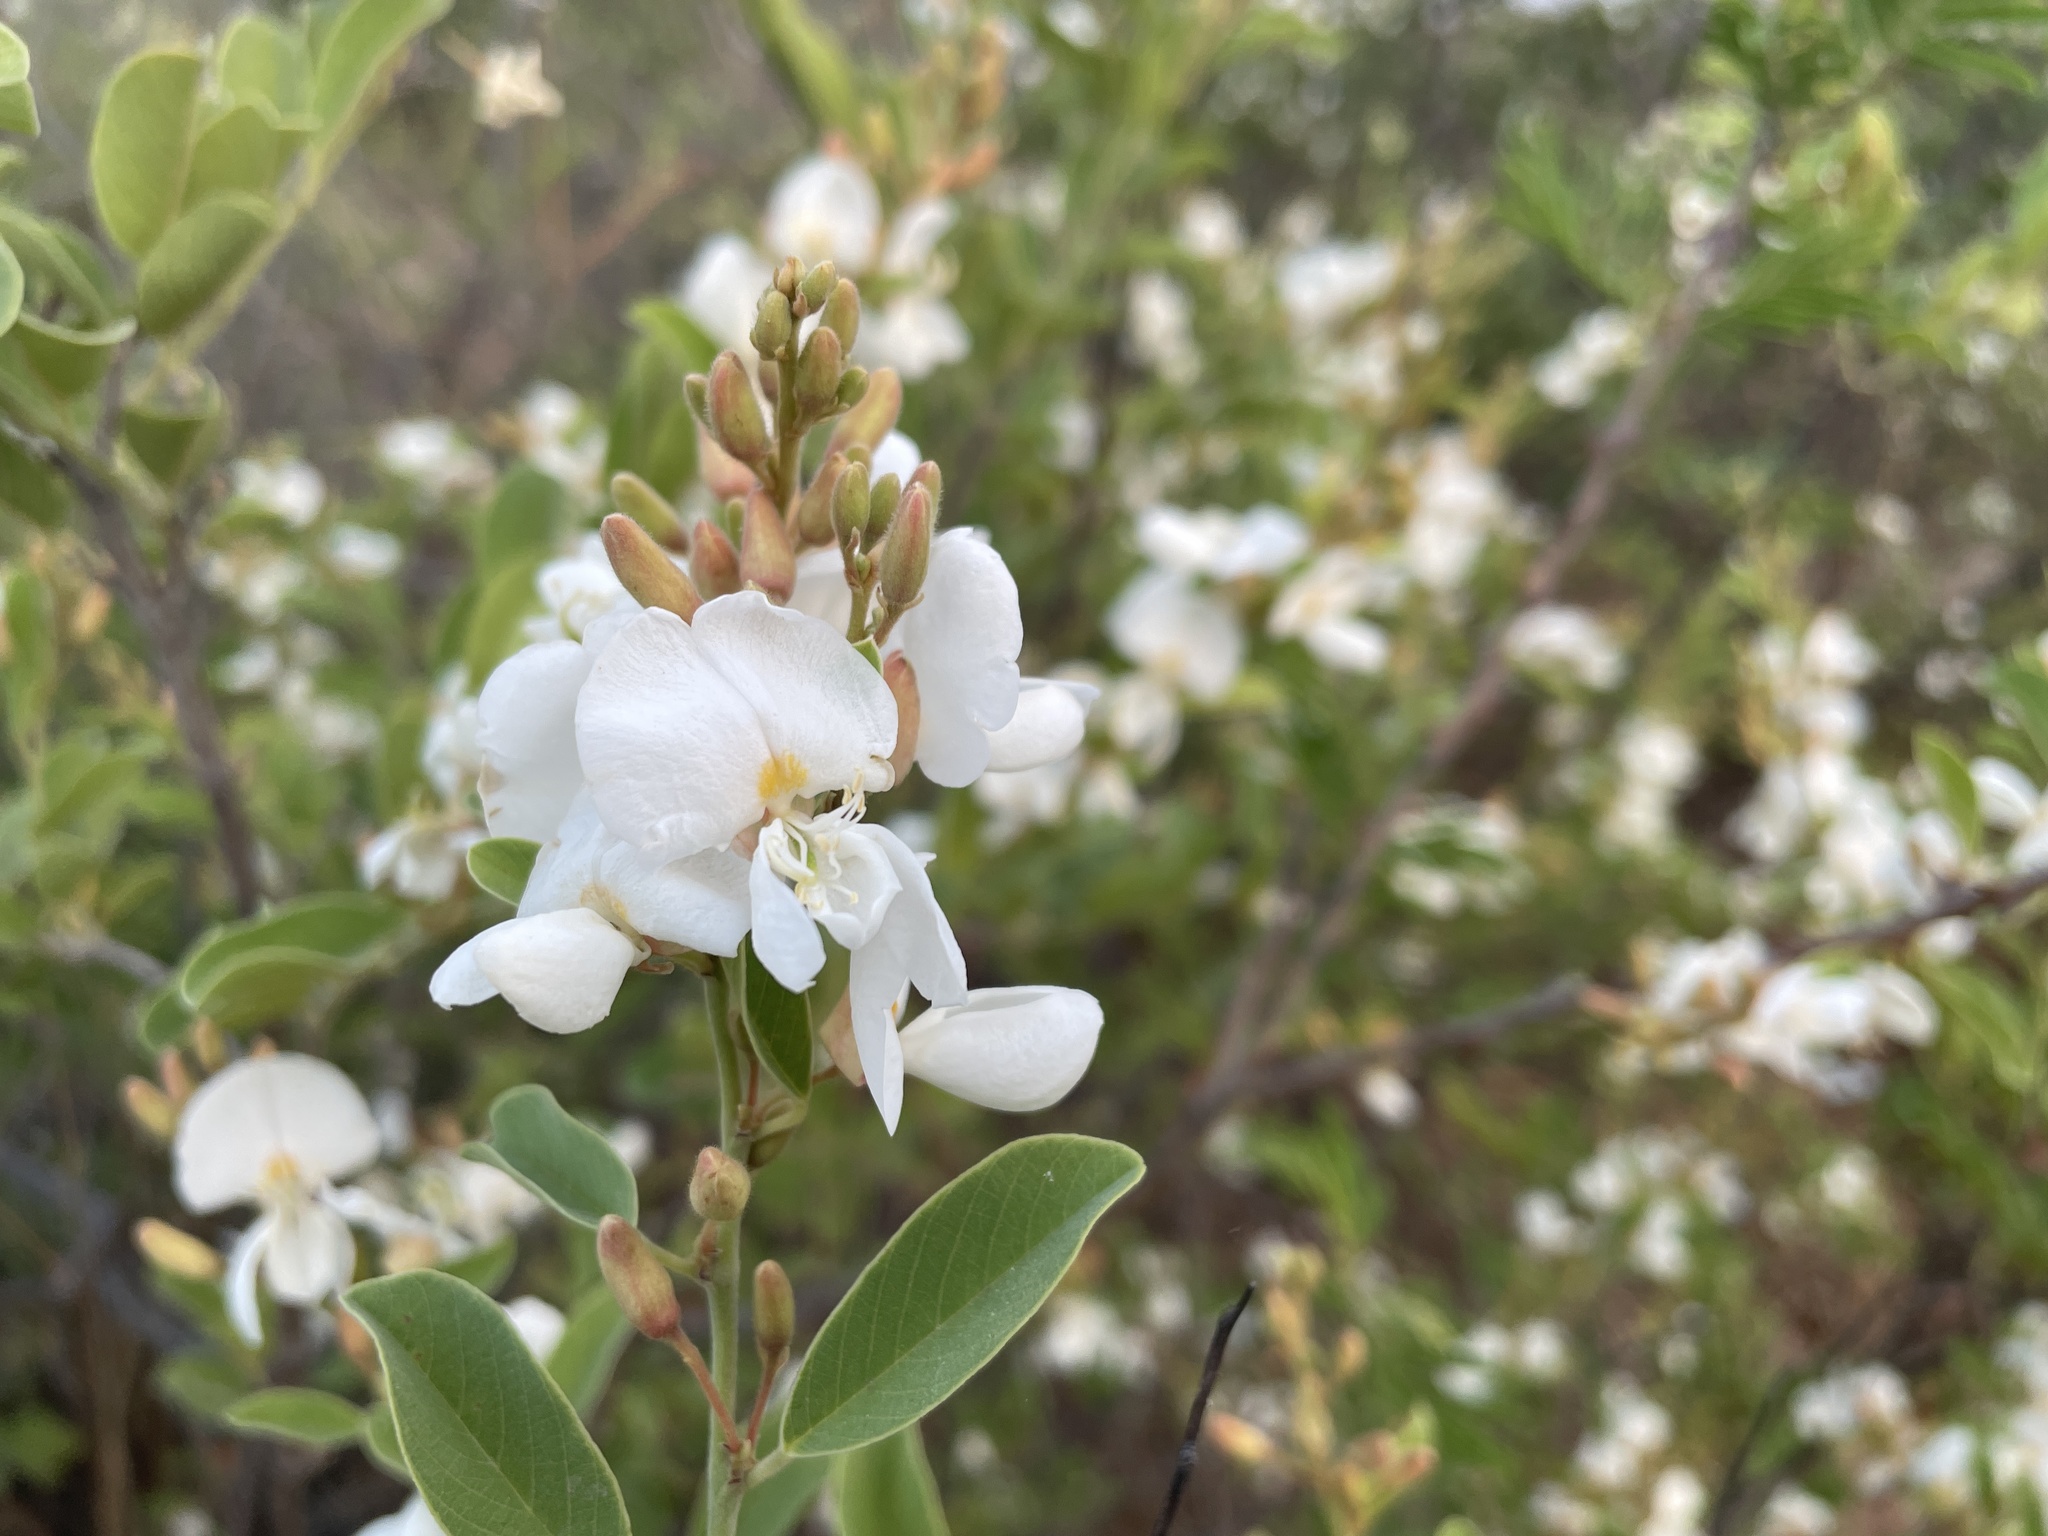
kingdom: Plantae
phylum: Tracheophyta
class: Magnoliopsida
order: Fabales
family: Fabaceae
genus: Baphia
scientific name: Baphia massaiensis
